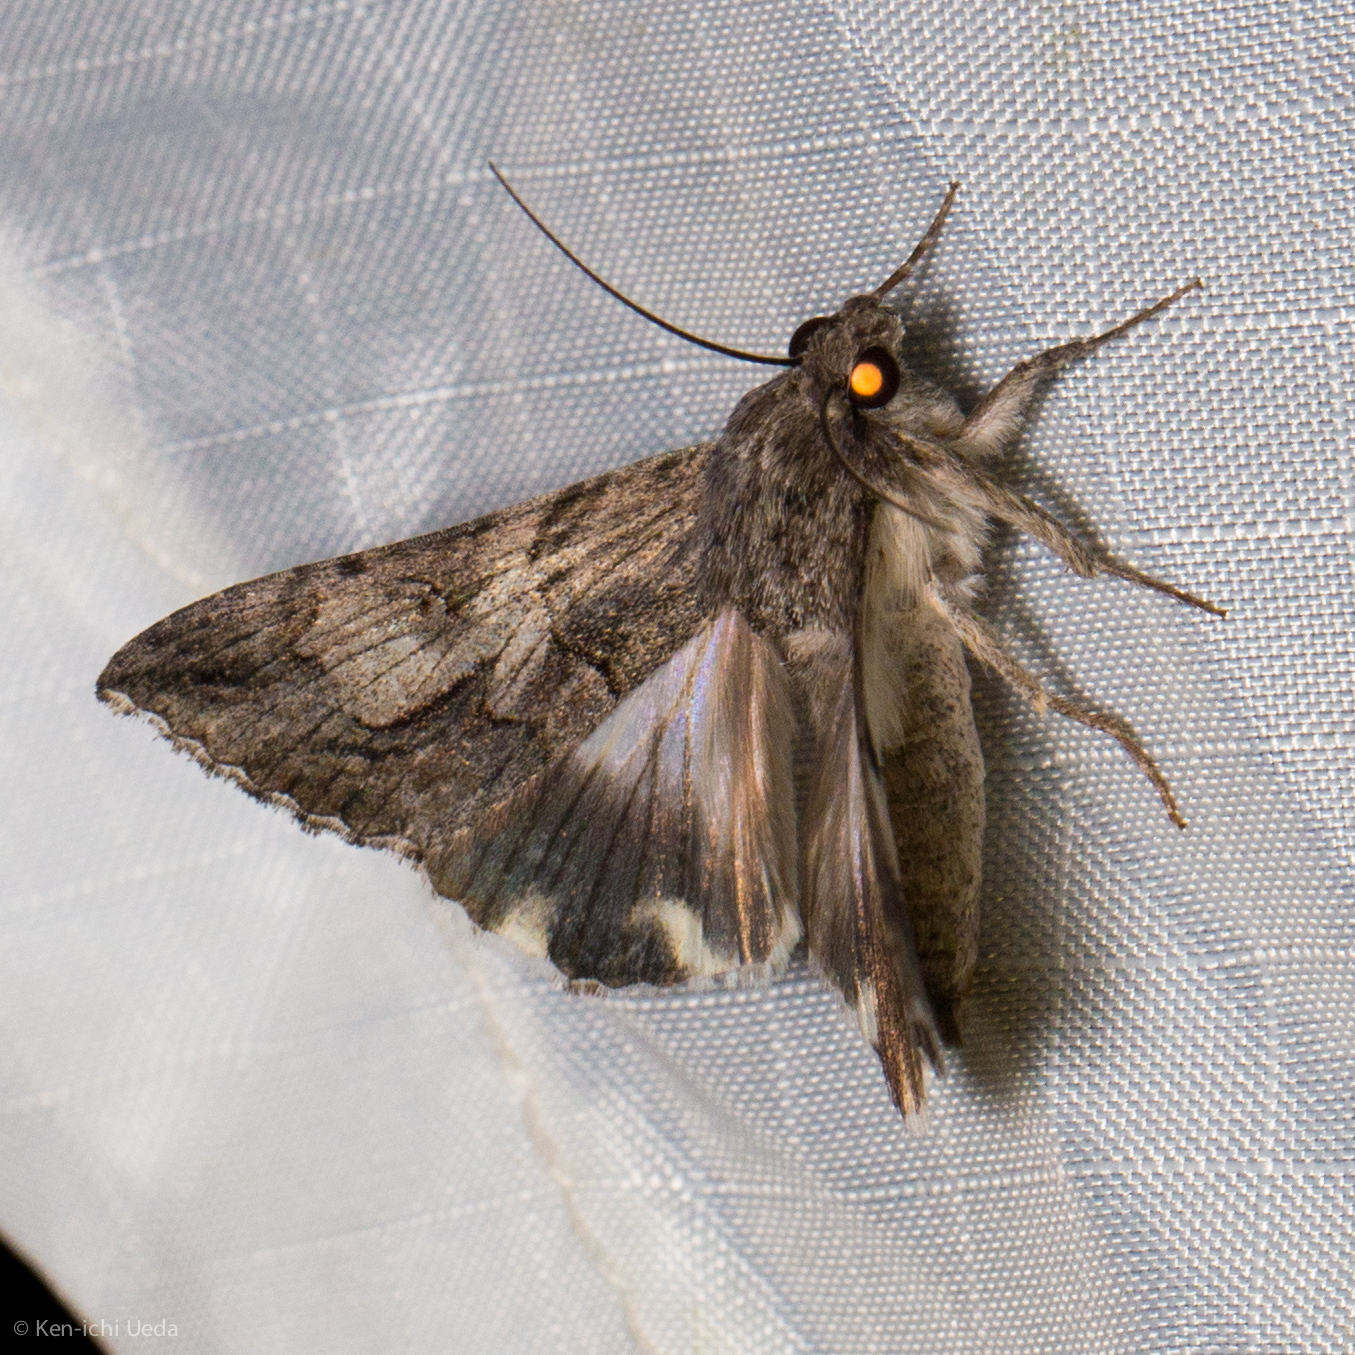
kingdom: Animalia
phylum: Arthropoda
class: Insecta
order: Lepidoptera
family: Erebidae
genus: Melipotis
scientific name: Melipotis jucunda
